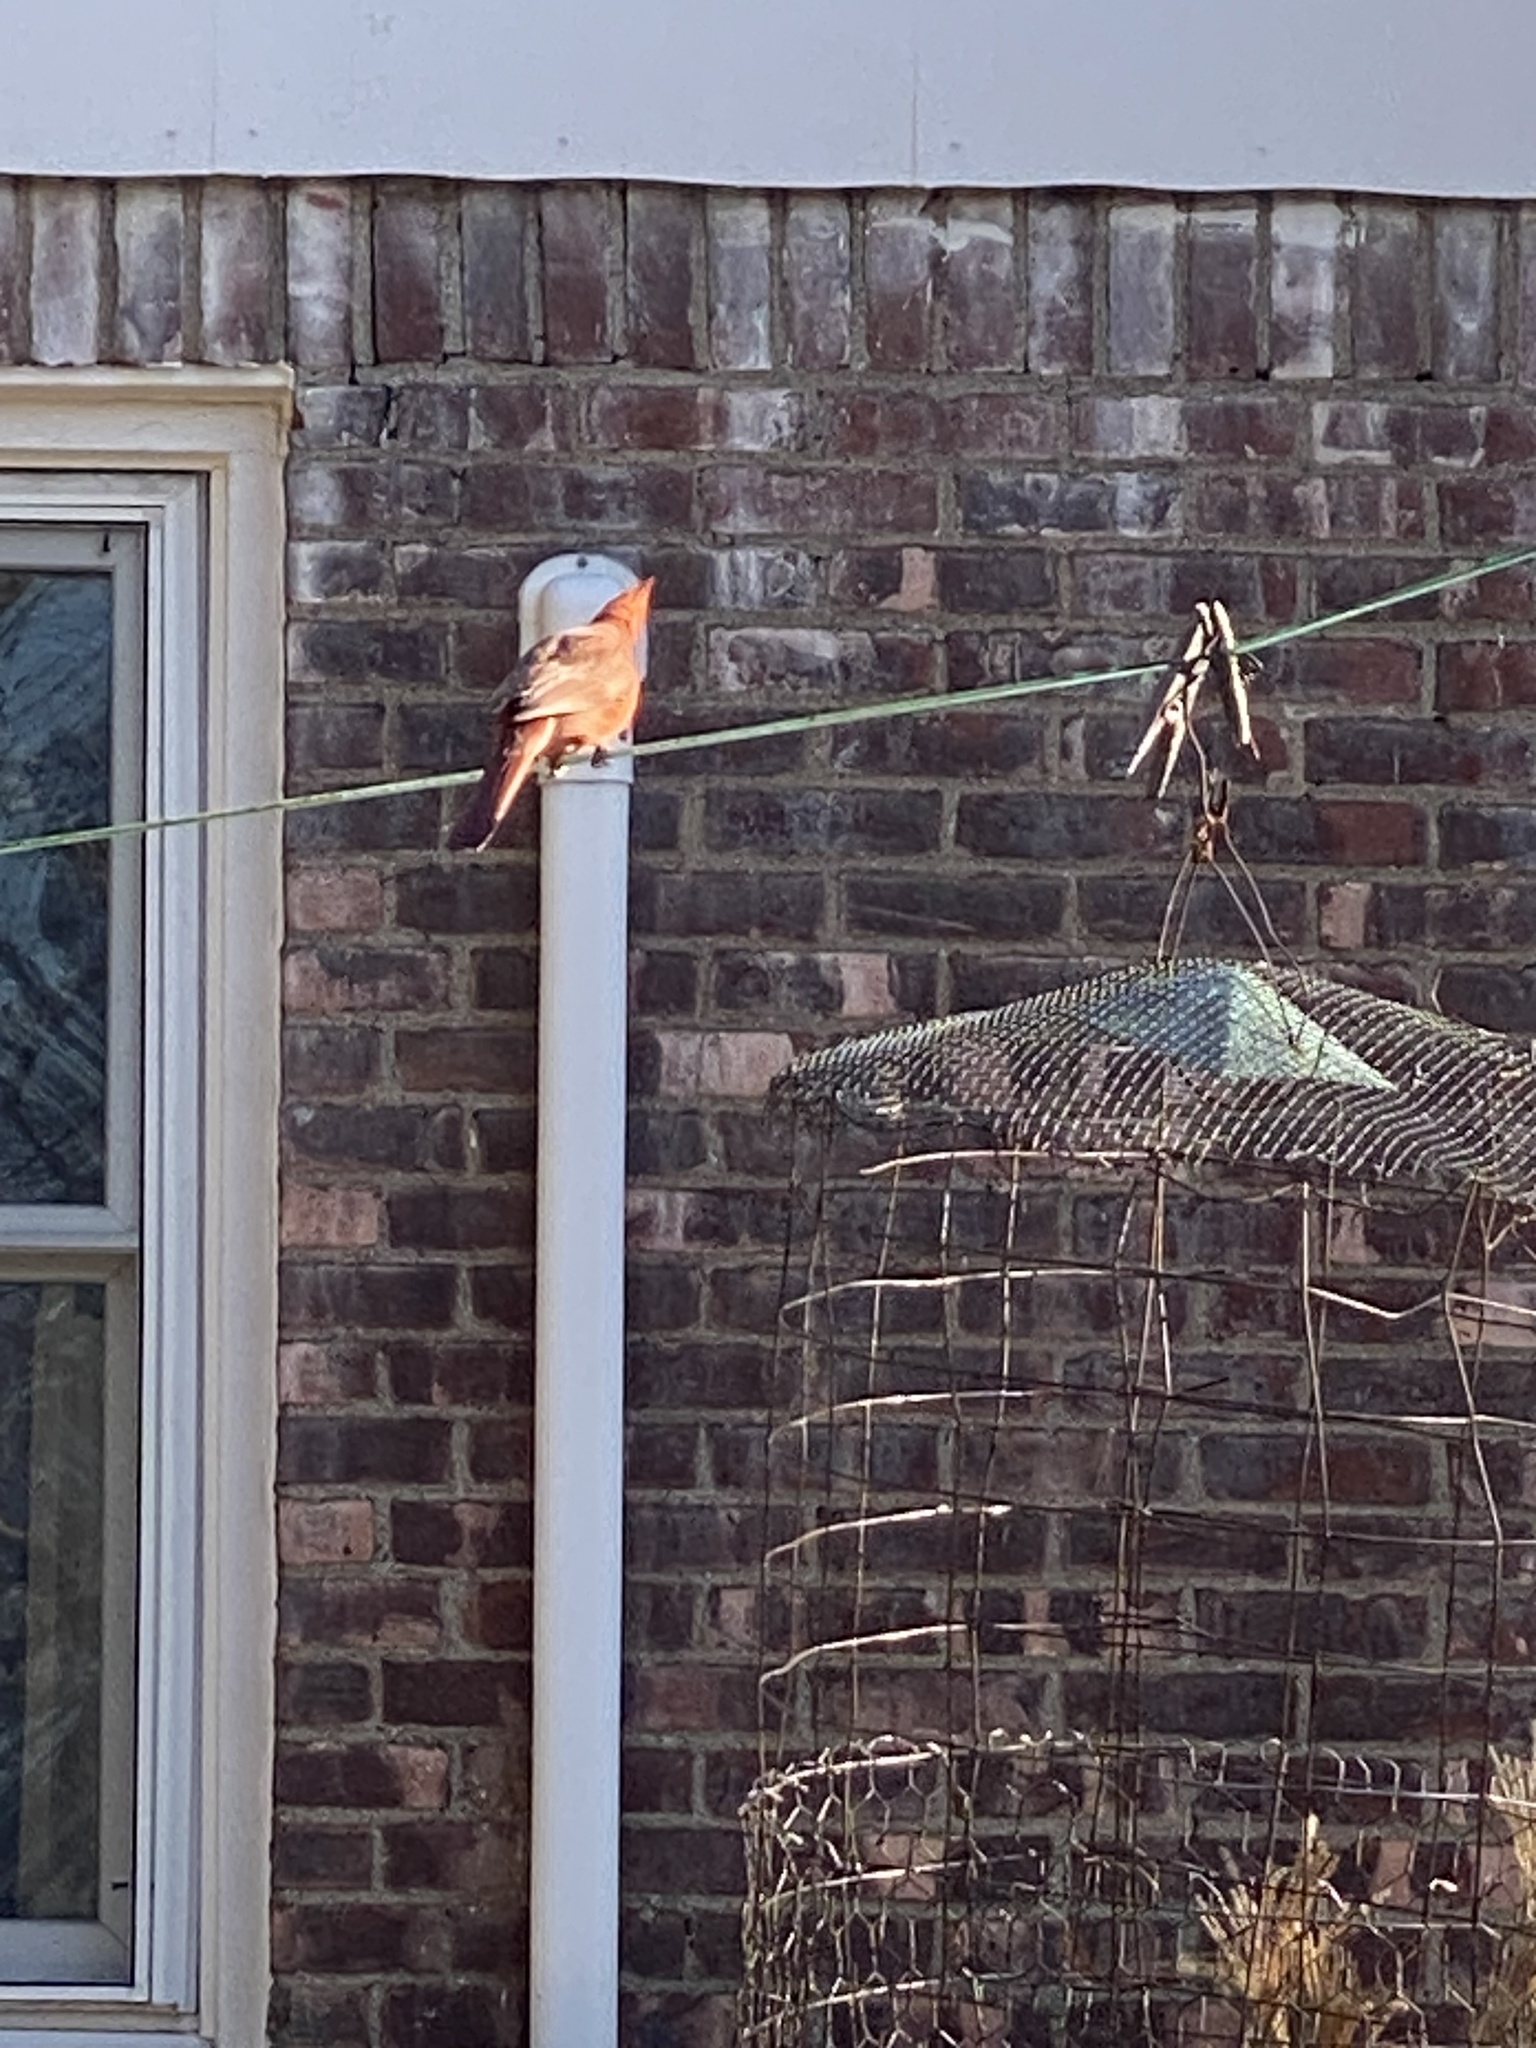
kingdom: Animalia
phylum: Chordata
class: Aves
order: Passeriformes
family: Cardinalidae
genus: Cardinalis
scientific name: Cardinalis cardinalis
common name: Northern cardinal
